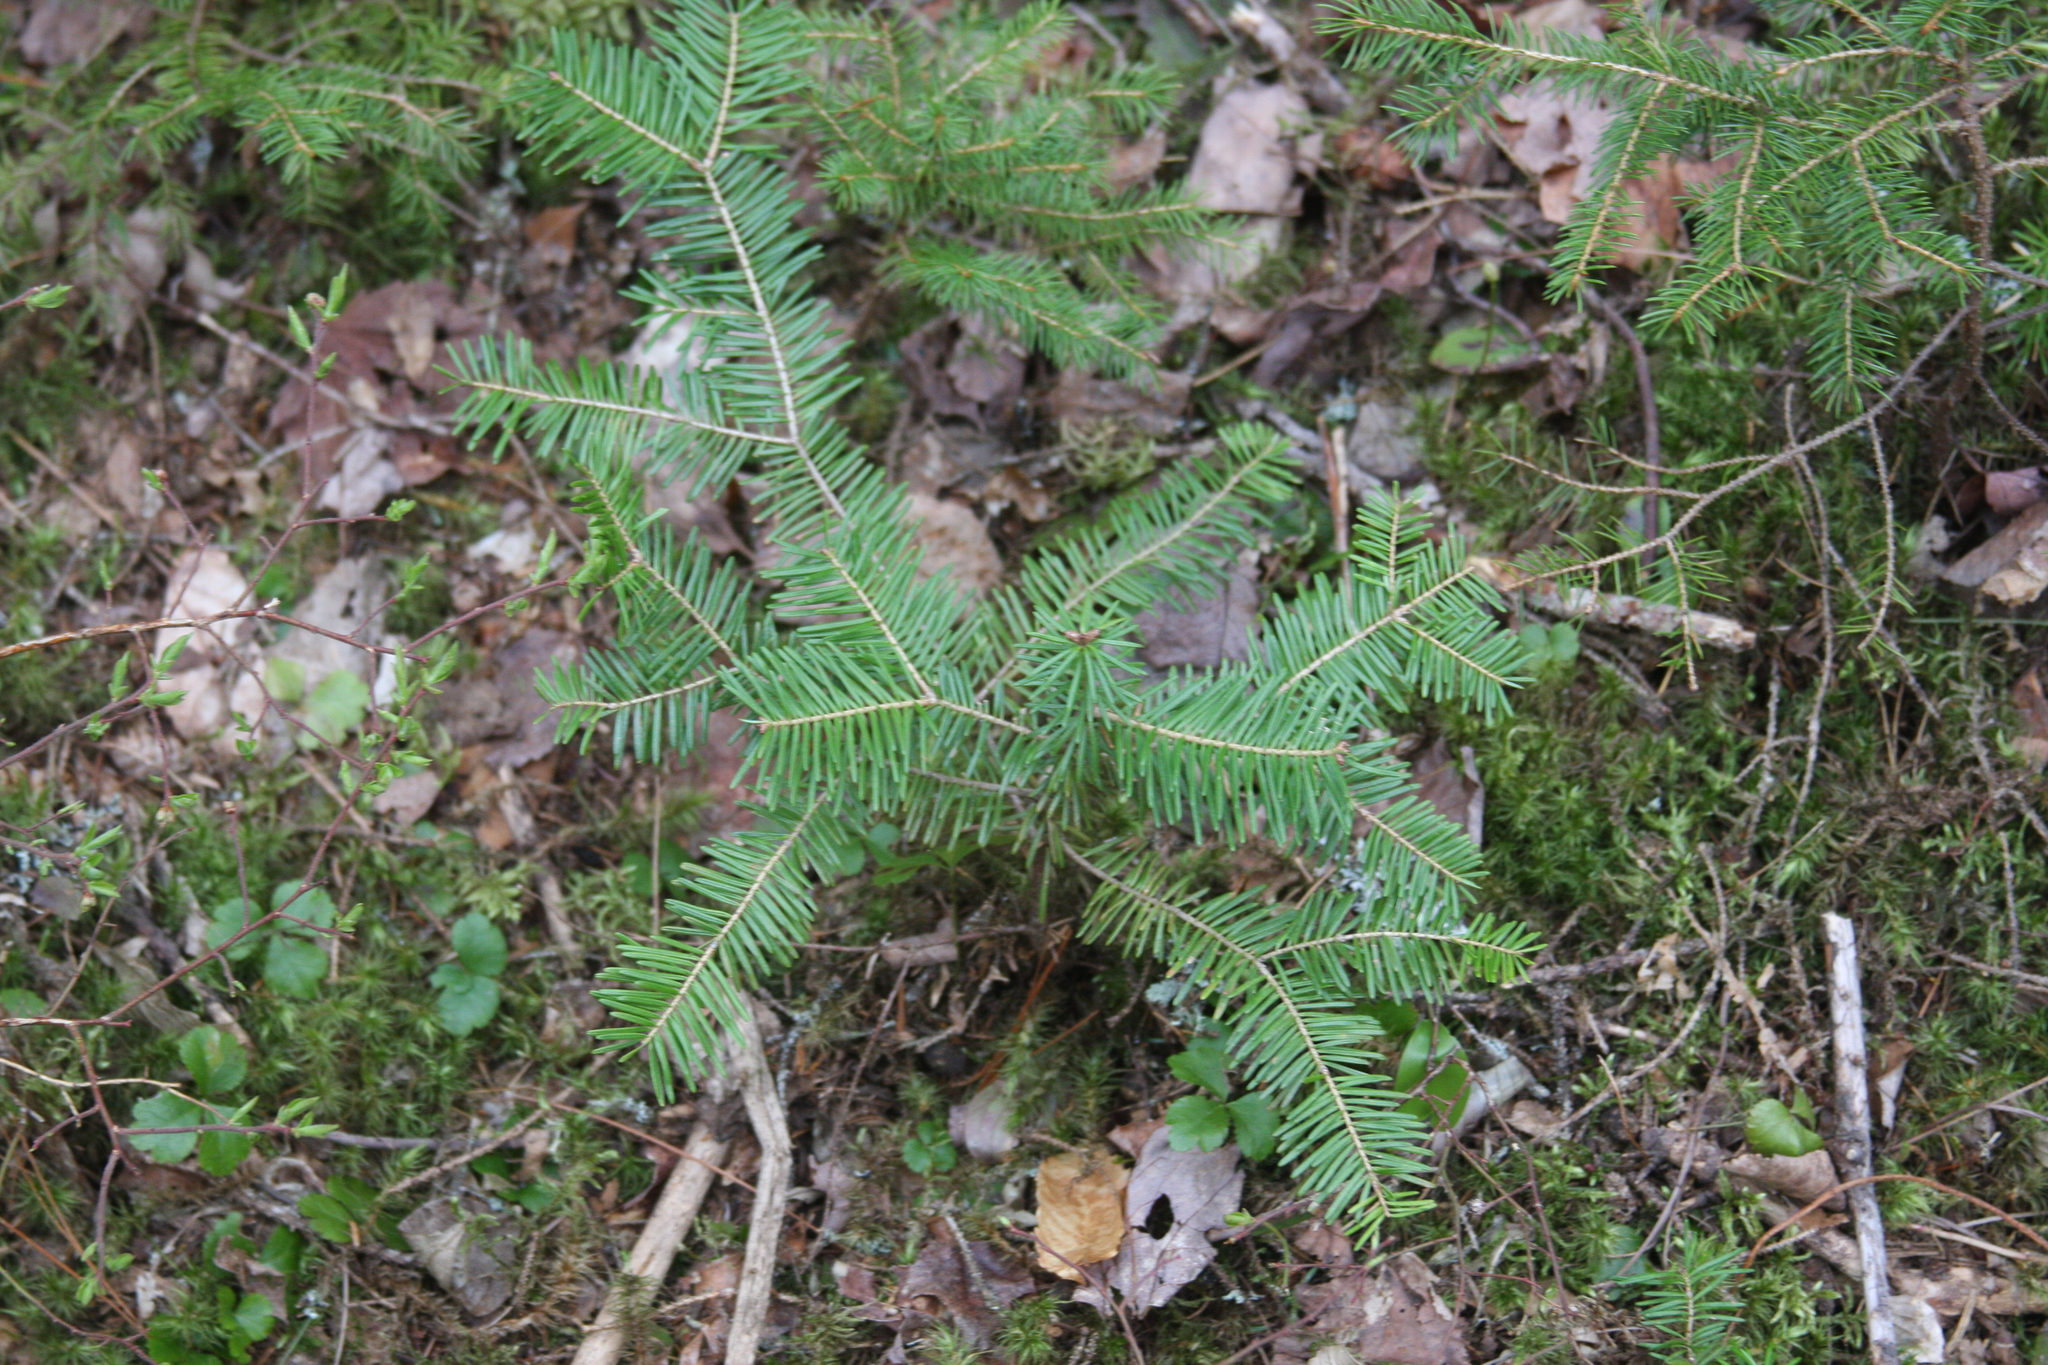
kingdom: Plantae
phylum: Tracheophyta
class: Pinopsida
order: Pinales
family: Pinaceae
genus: Abies
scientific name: Abies balsamea
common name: Balsam fir
